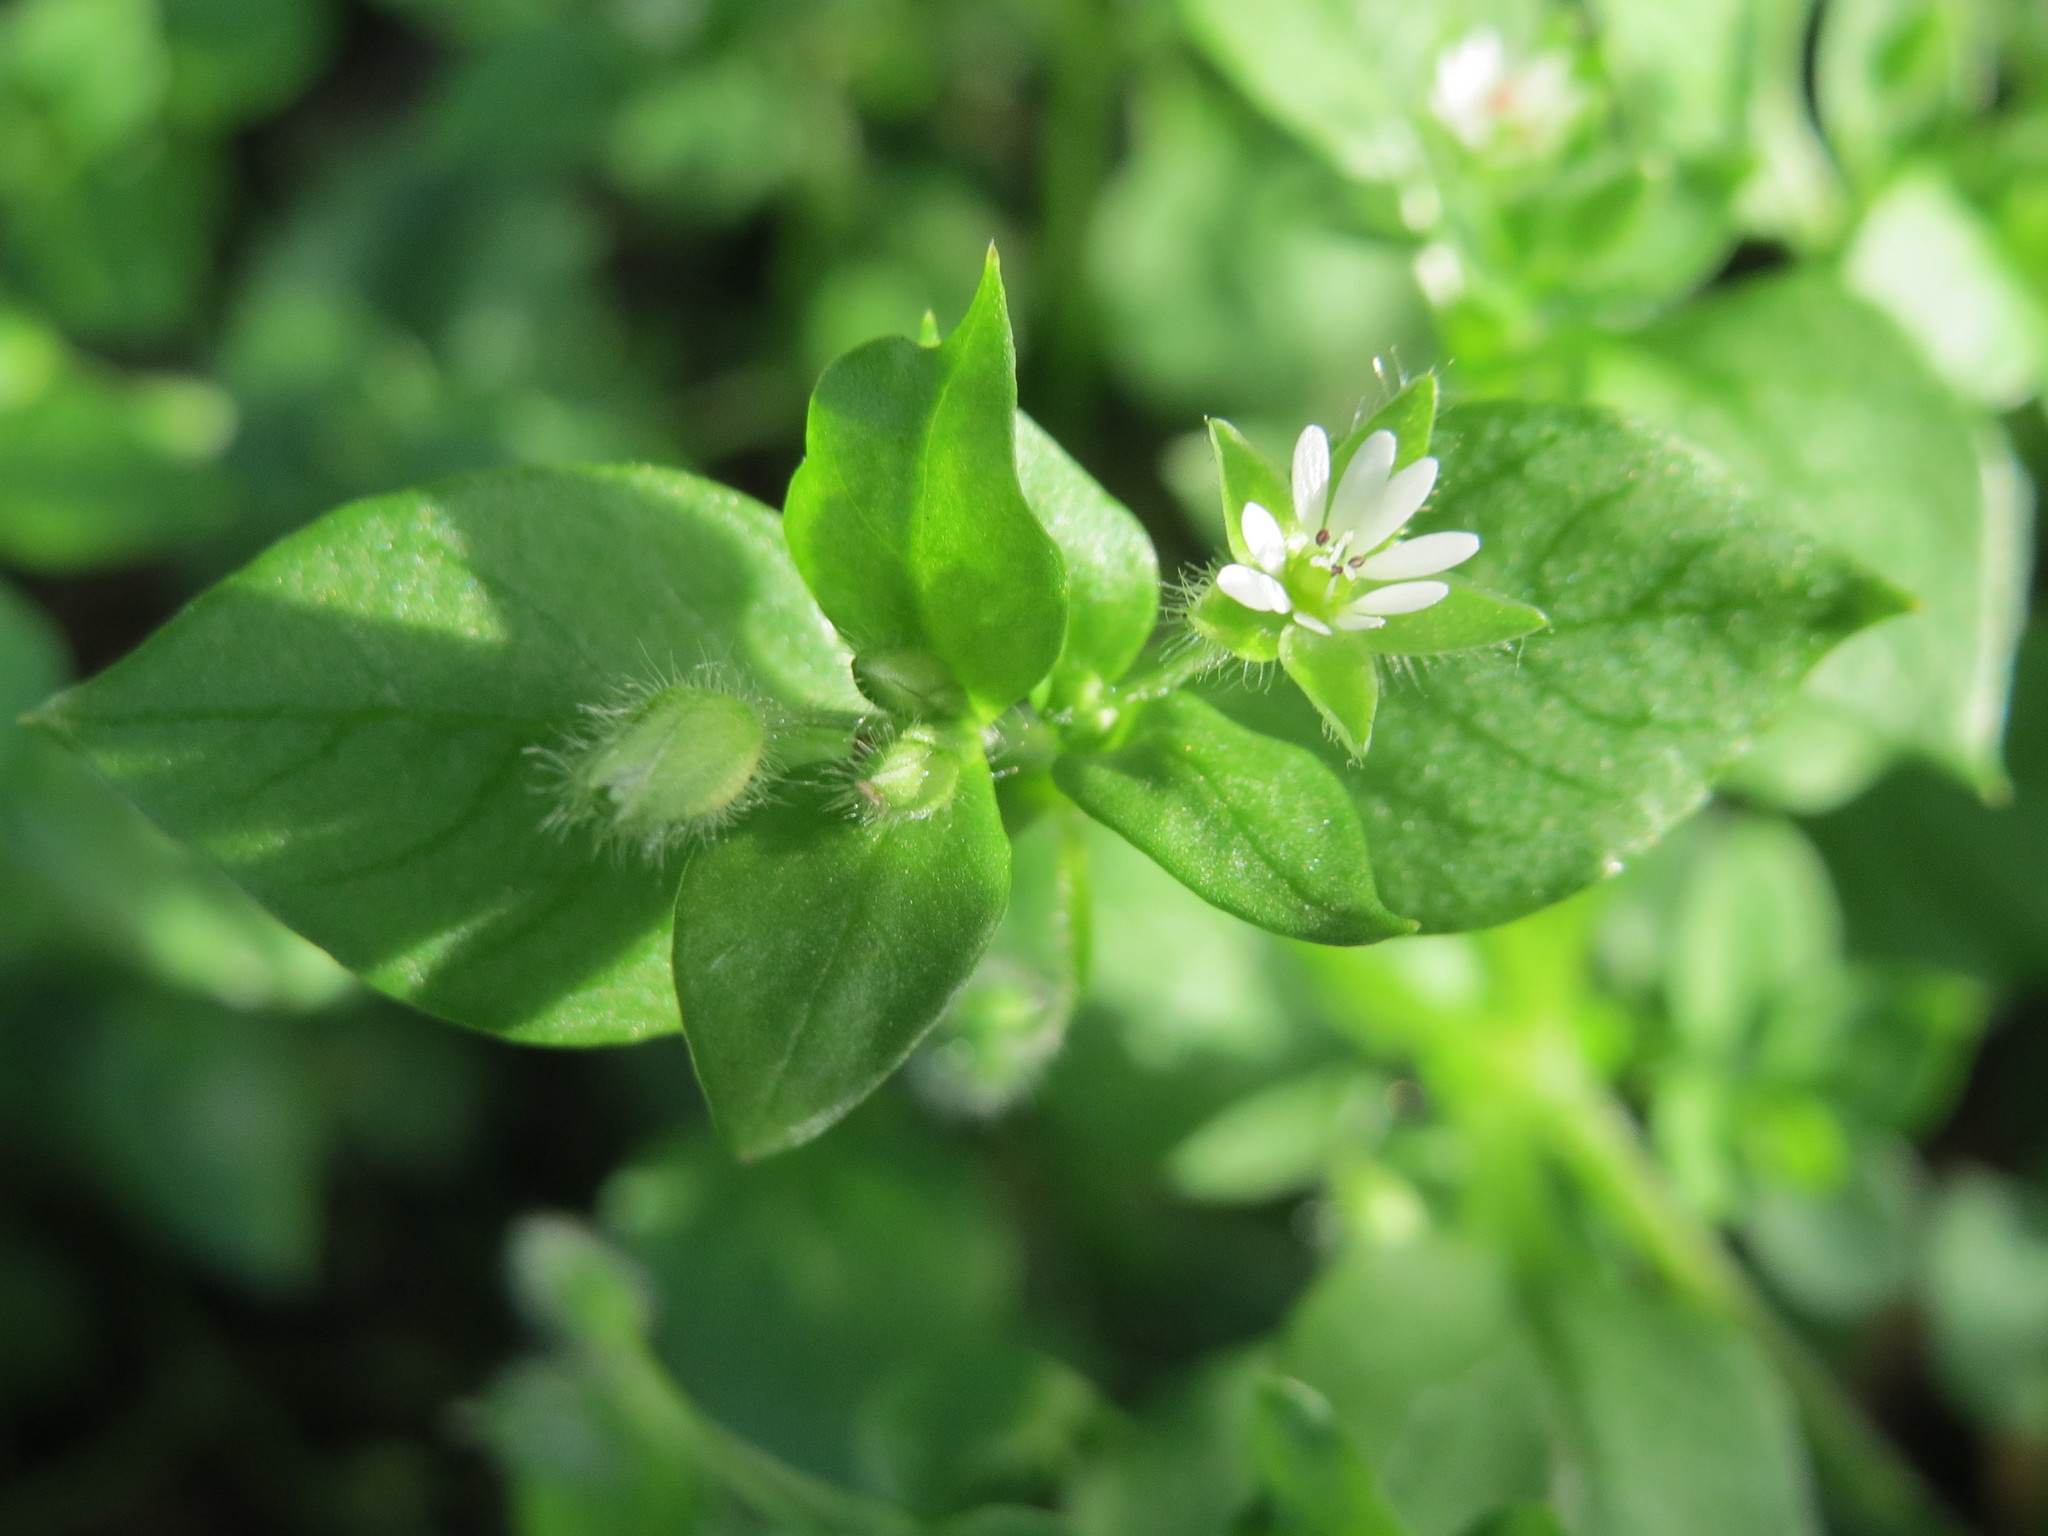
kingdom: Plantae
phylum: Tracheophyta
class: Magnoliopsida
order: Caryophyllales
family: Caryophyllaceae
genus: Stellaria
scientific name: Stellaria media
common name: Common chickweed
